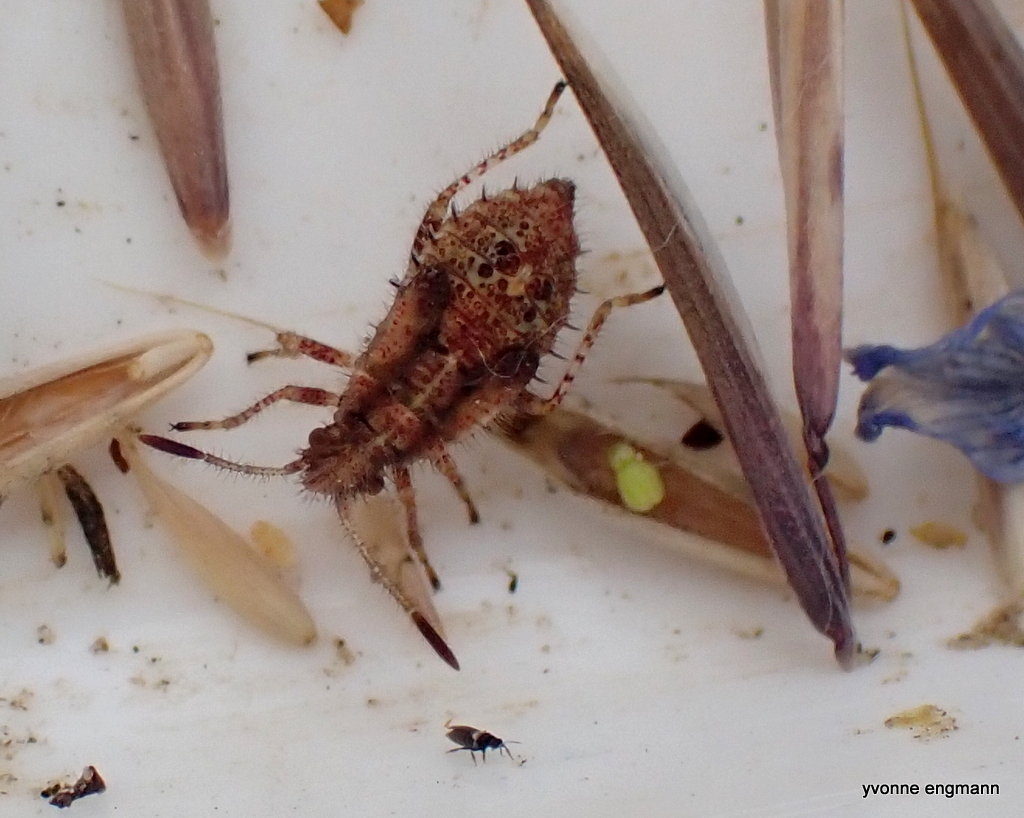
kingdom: Animalia
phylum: Arthropoda
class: Insecta
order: Hemiptera
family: Rhopalidae
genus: Rhopalus
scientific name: Rhopalus subrufus
